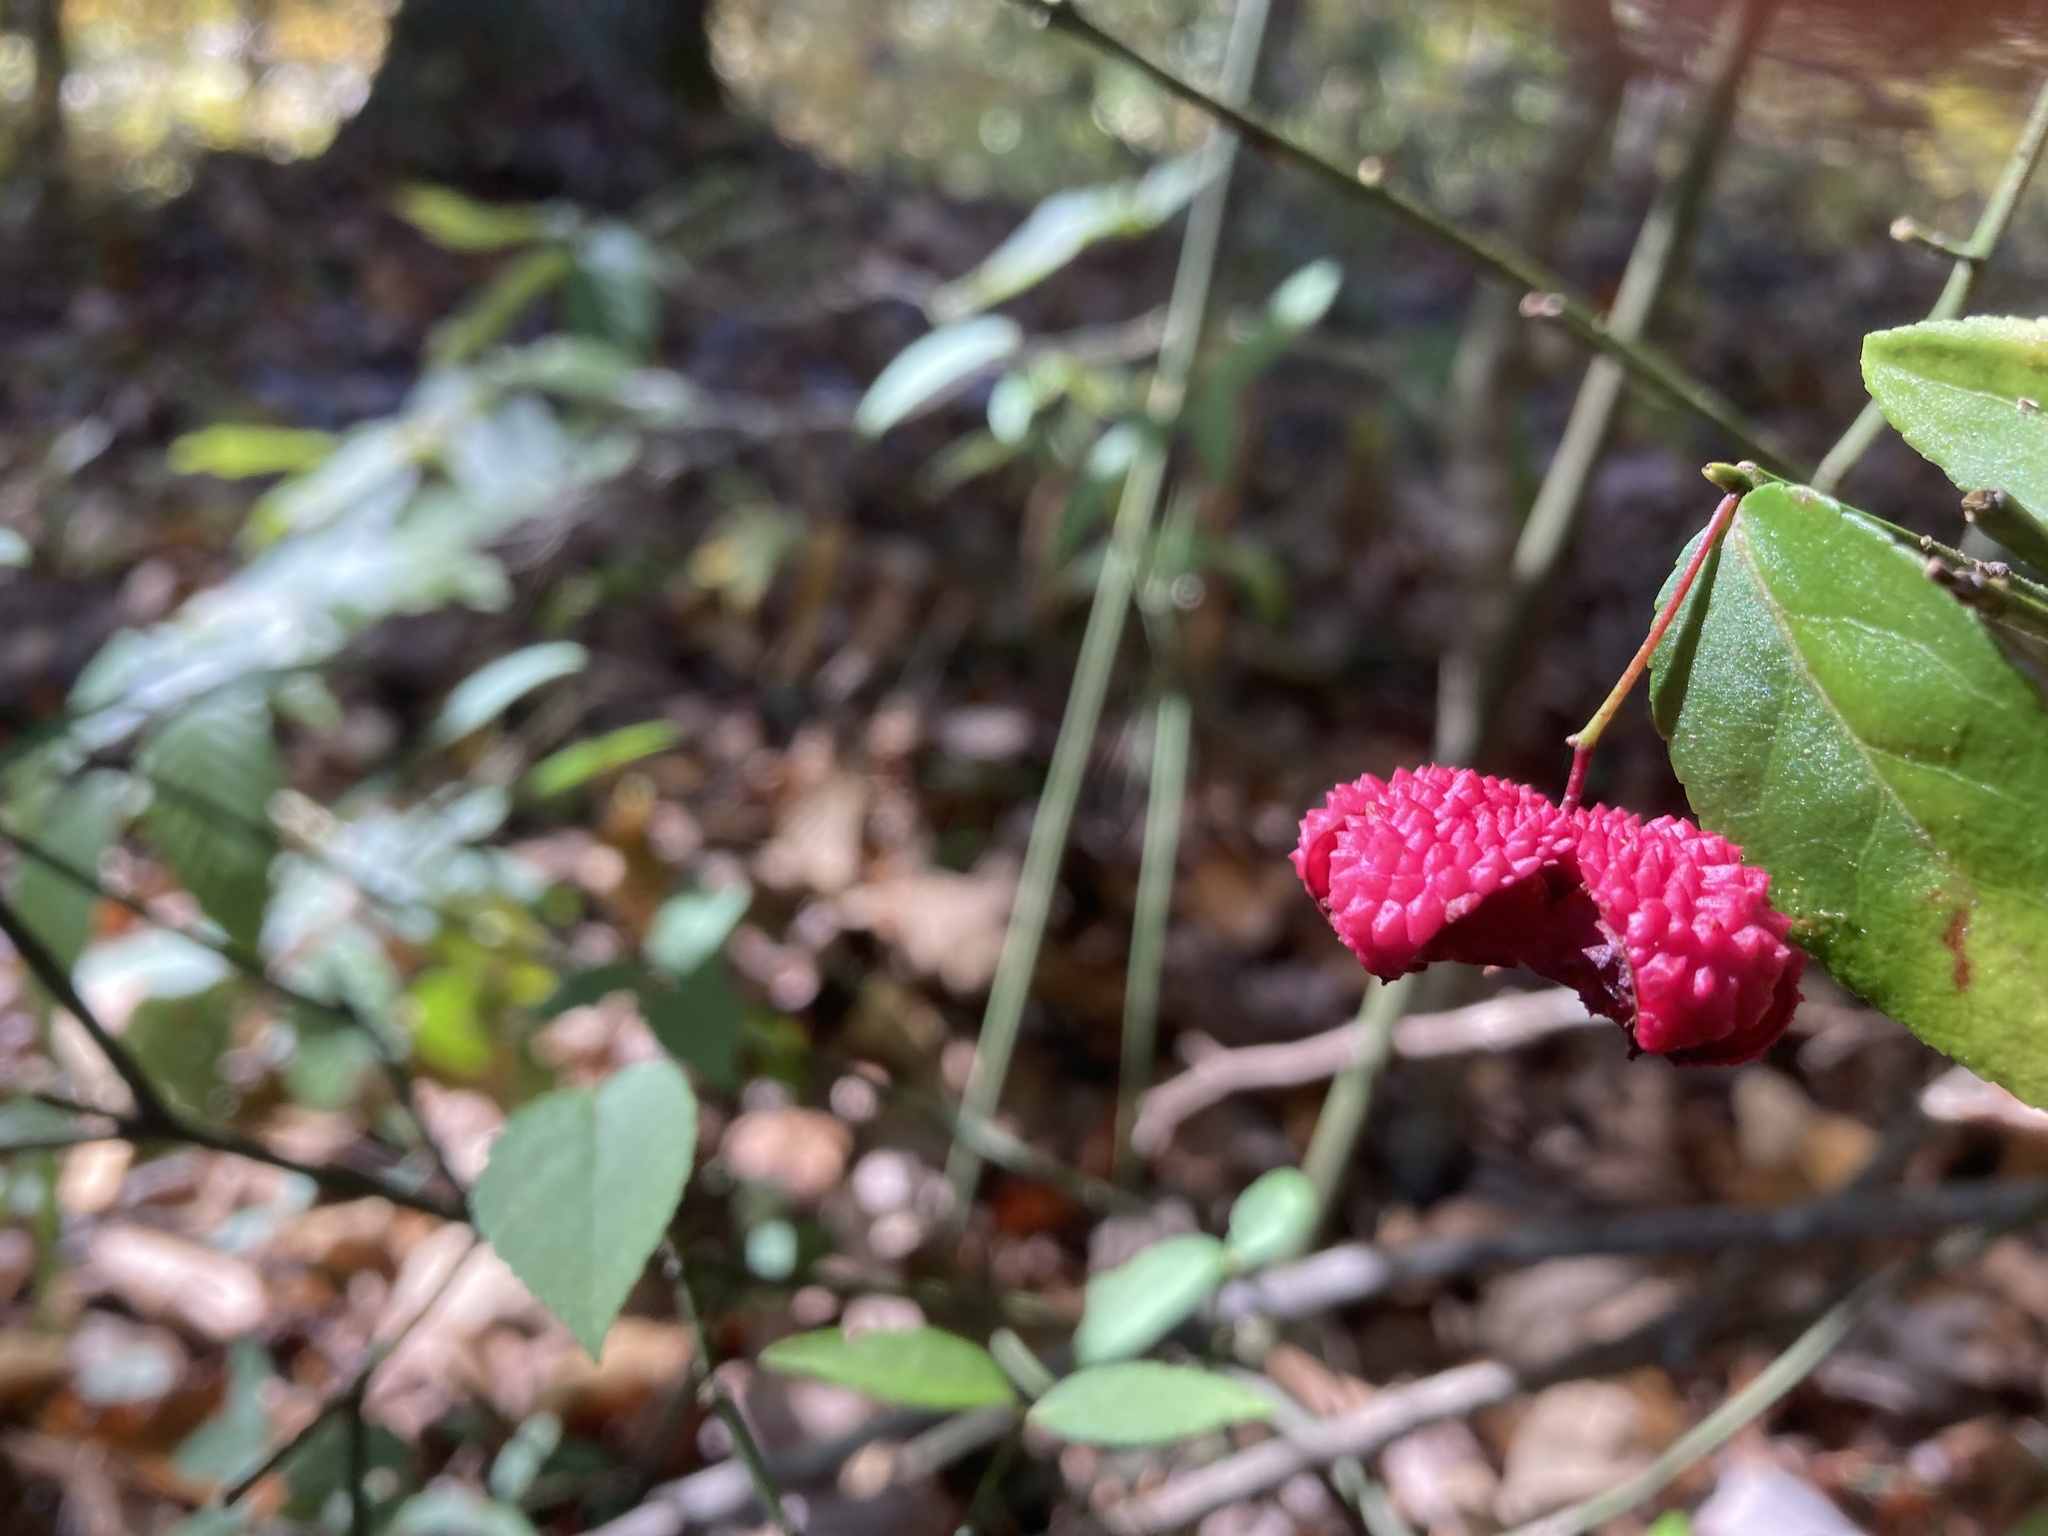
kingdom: Plantae
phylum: Tracheophyta
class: Magnoliopsida
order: Celastrales
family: Celastraceae
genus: Euonymus
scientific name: Euonymus americanus
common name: Bursting-heart
